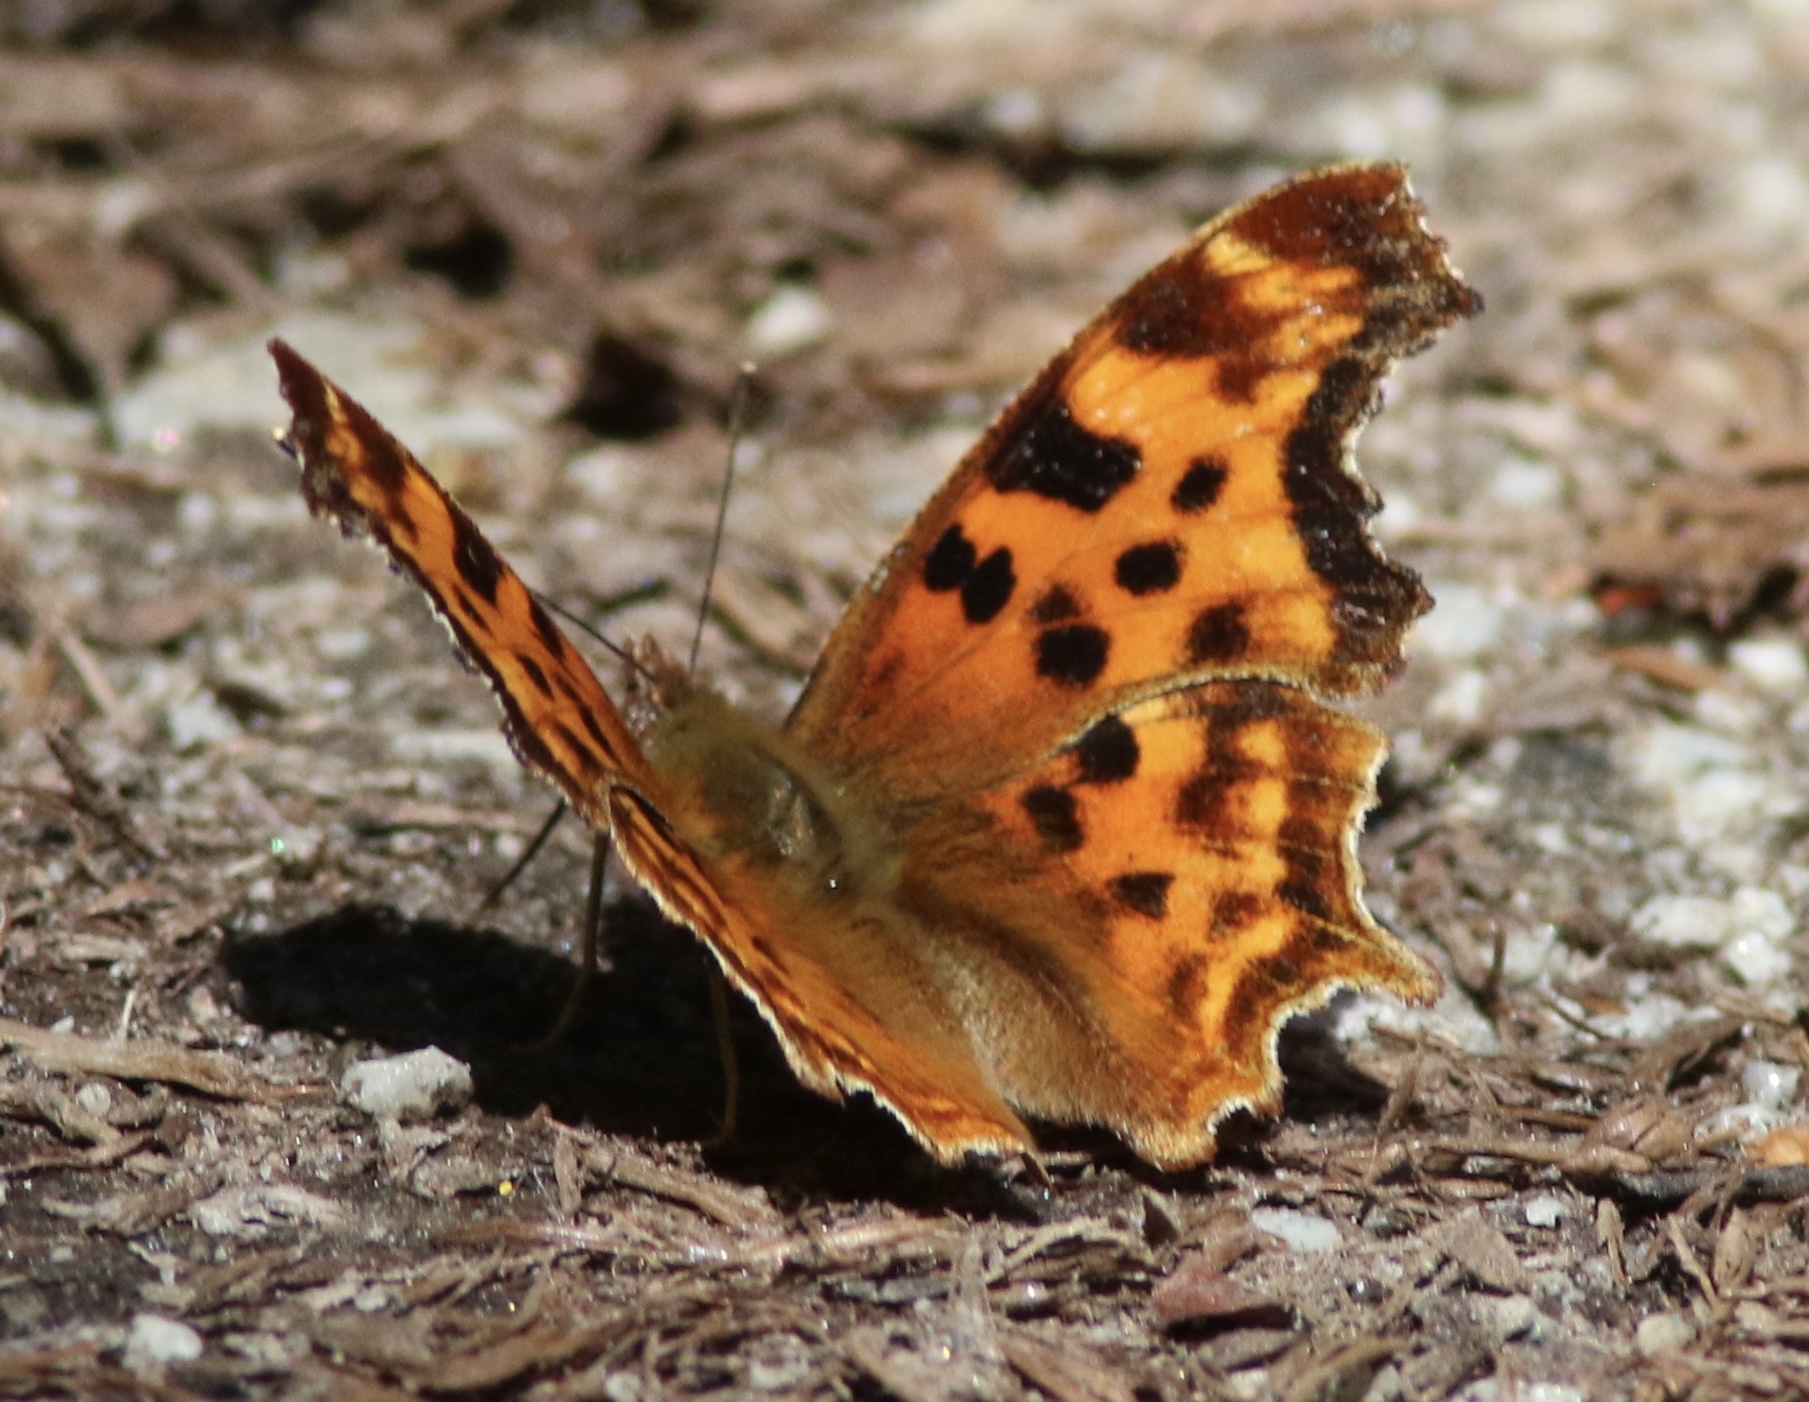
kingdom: Animalia
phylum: Arthropoda
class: Insecta
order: Lepidoptera
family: Nymphalidae
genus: Polygonia
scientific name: Polygonia satyrus
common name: Satyr angle wing
